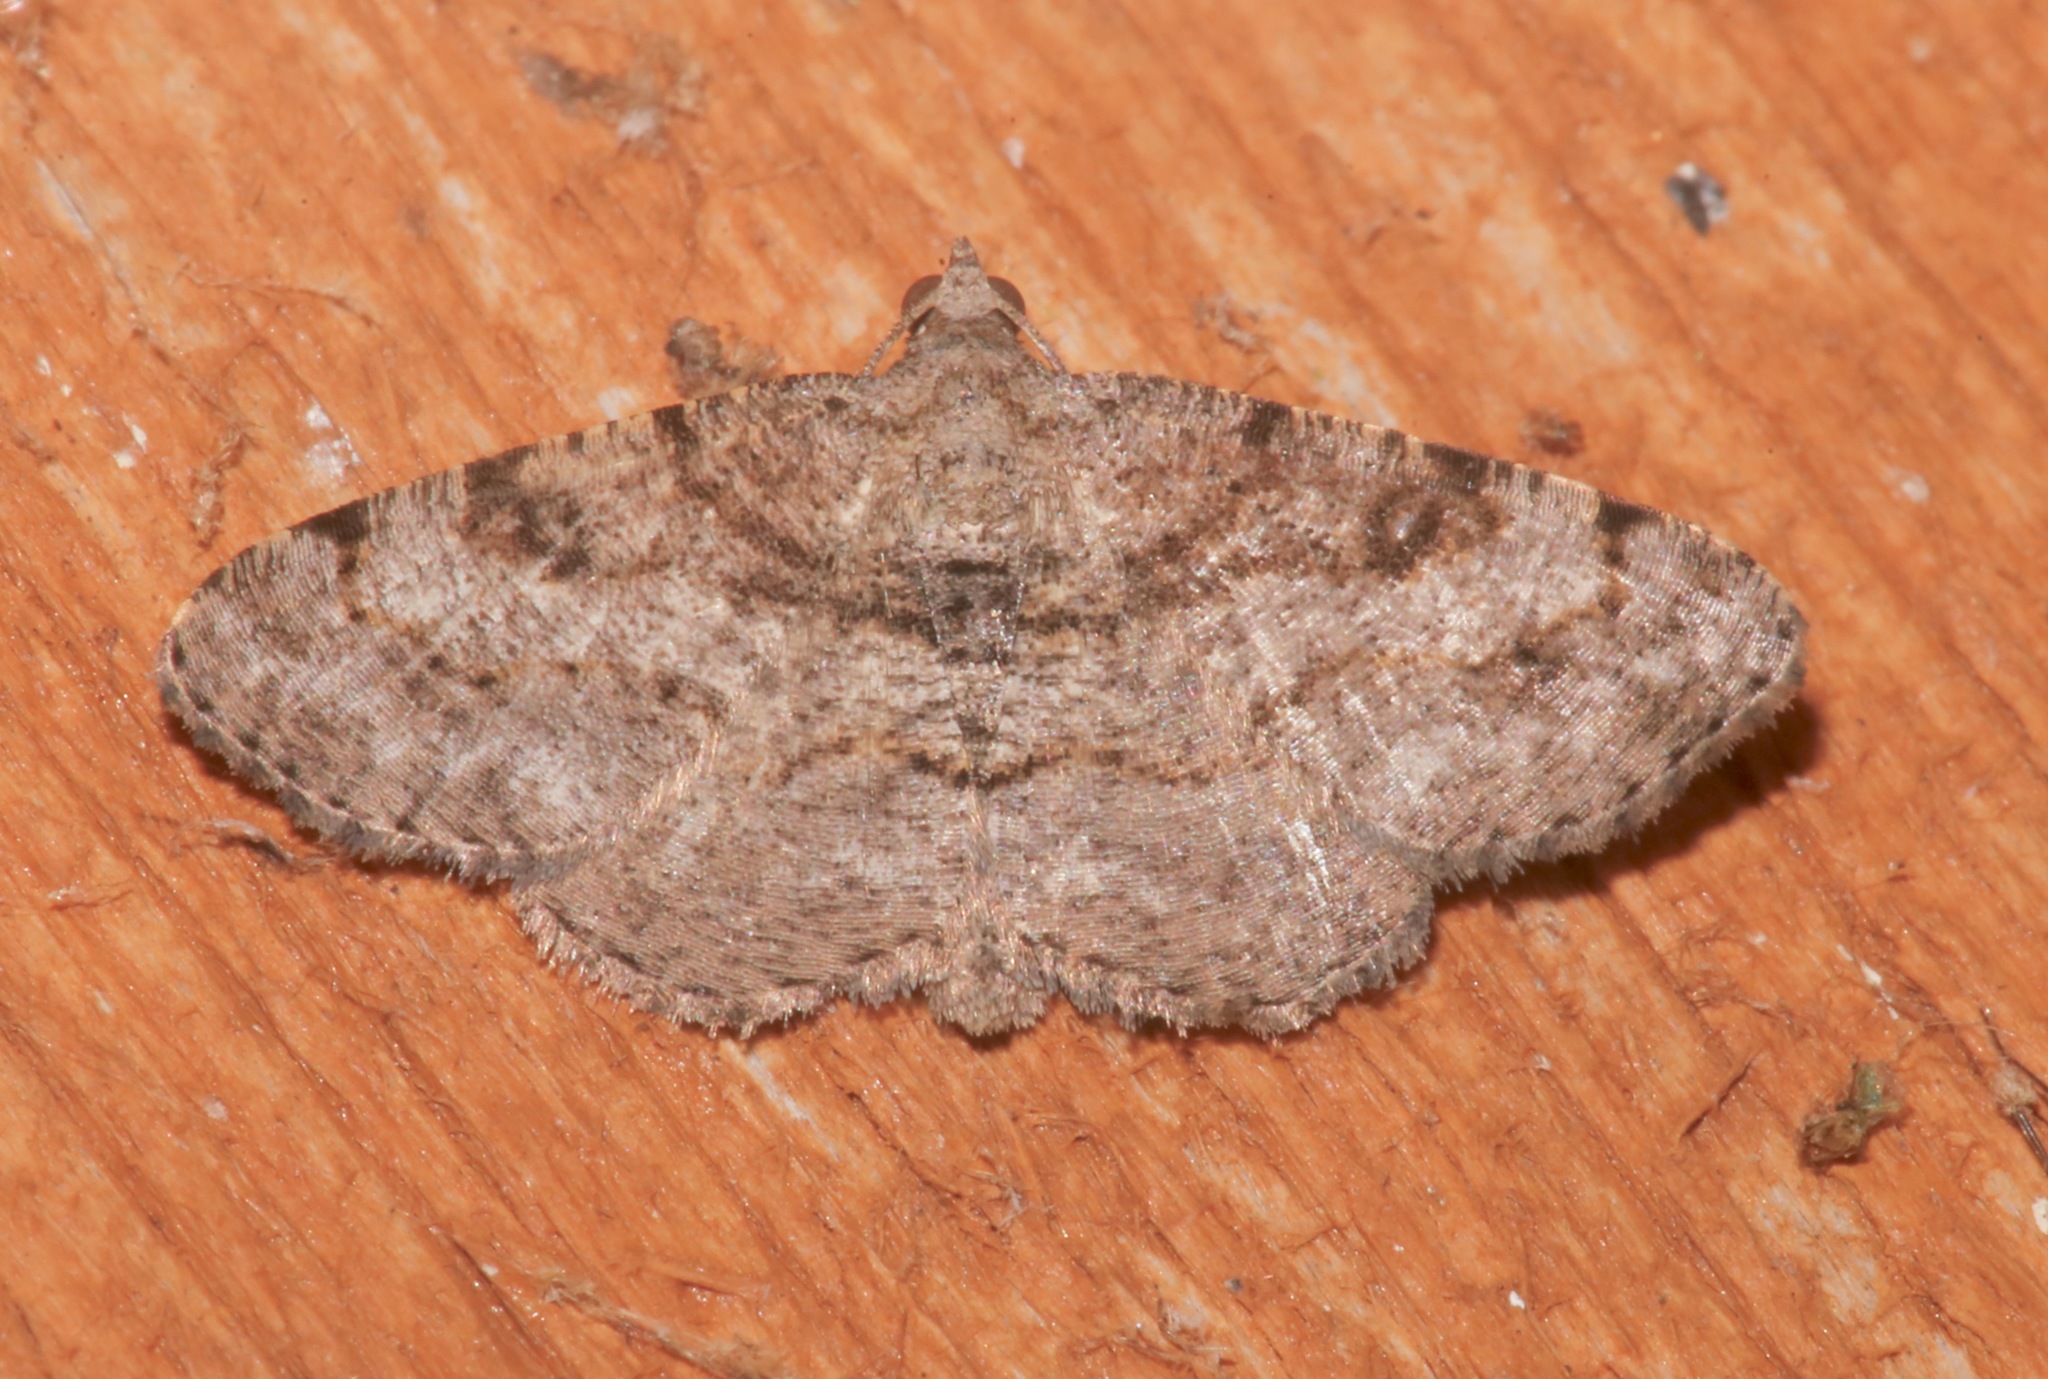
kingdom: Animalia
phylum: Arthropoda
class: Insecta
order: Lepidoptera
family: Geometridae
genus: Digrammia
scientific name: Digrammia gnophosaria
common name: Hollow-spotted angle
